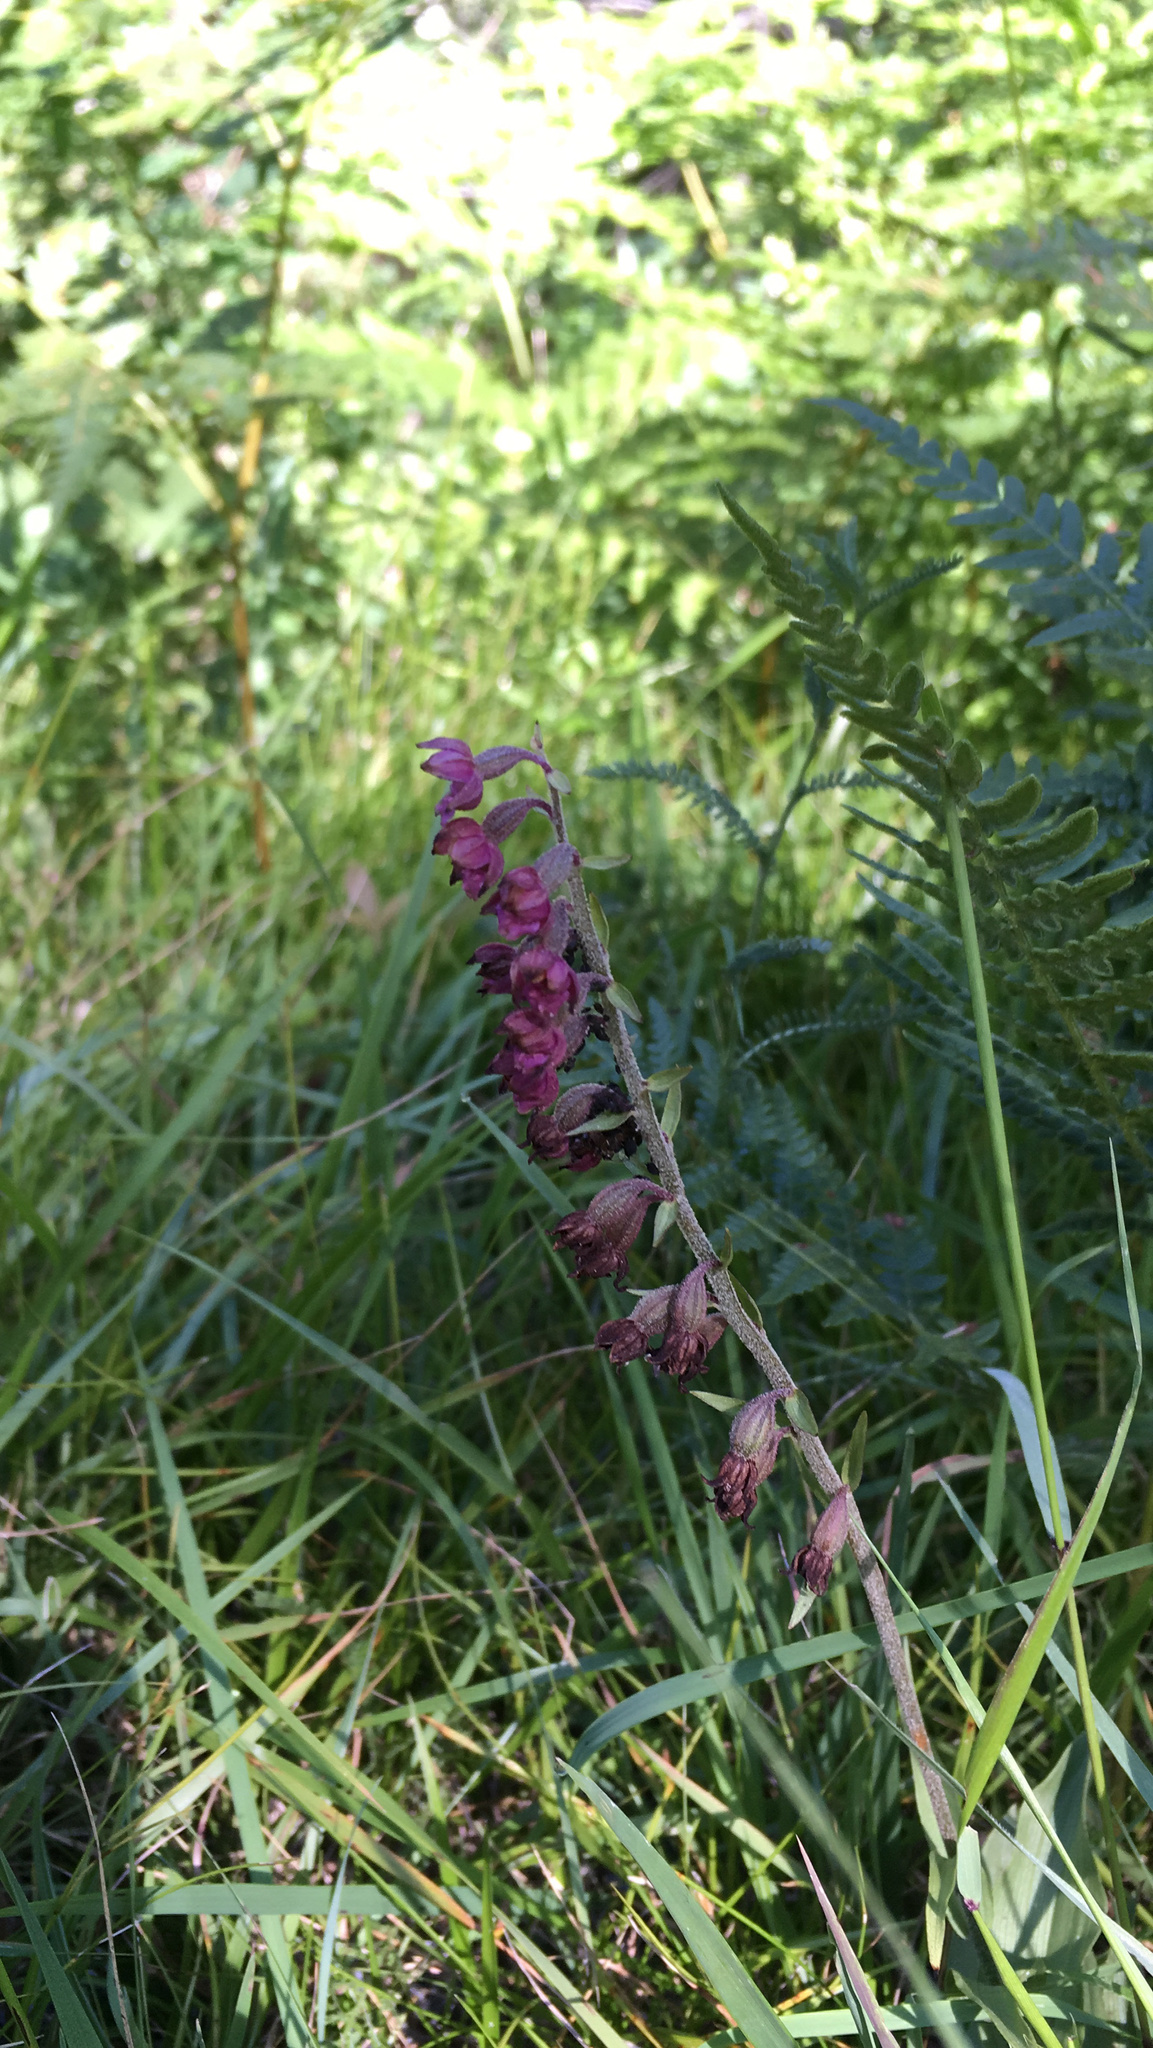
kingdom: Plantae
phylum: Tracheophyta
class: Liliopsida
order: Asparagales
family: Orchidaceae
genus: Epipactis
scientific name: Epipactis atrorubens
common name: Dark-red helleborine
